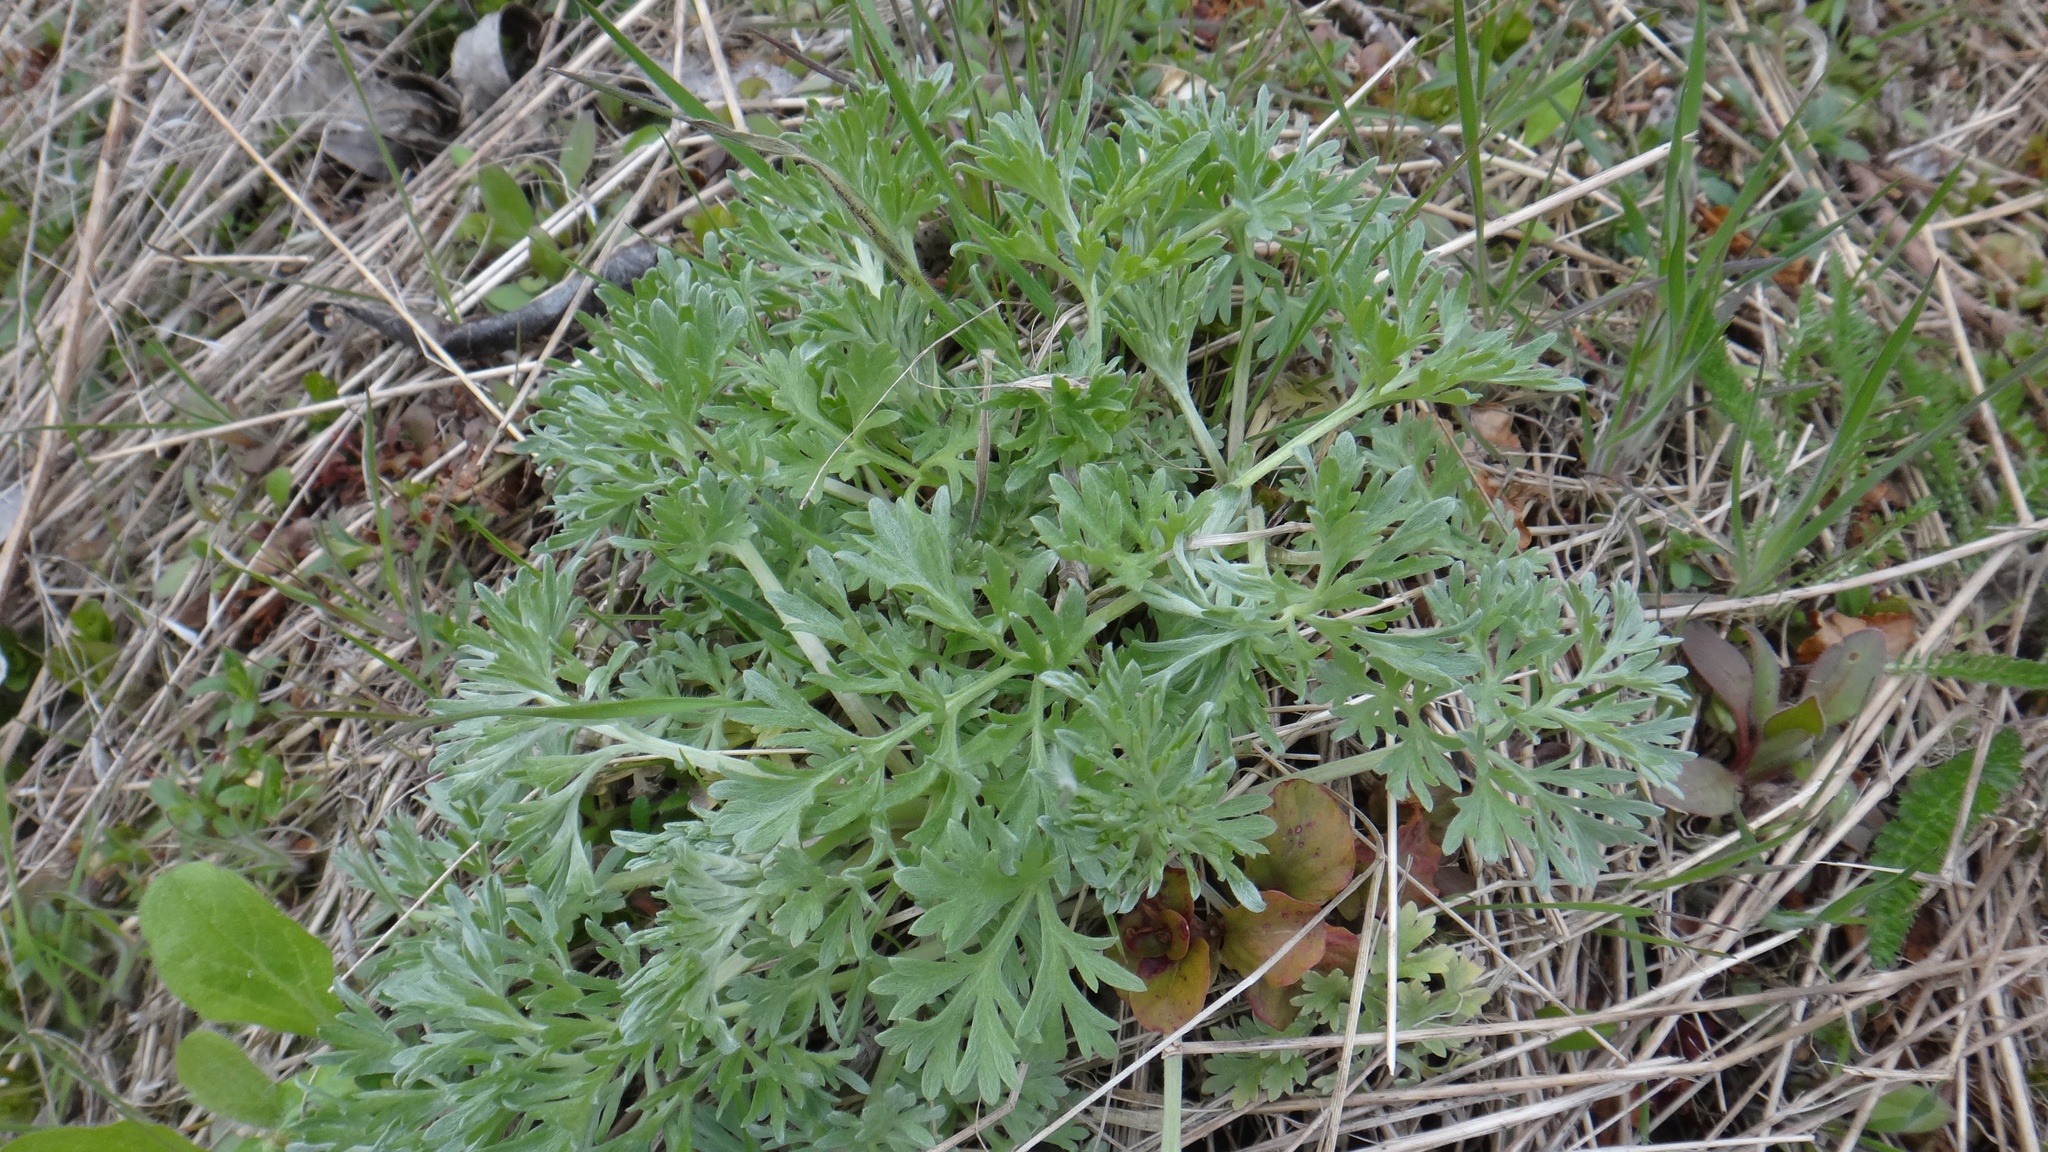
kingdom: Plantae
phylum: Tracheophyta
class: Magnoliopsida
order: Asterales
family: Asteraceae
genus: Artemisia
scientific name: Artemisia absinthium
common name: Wormwood
